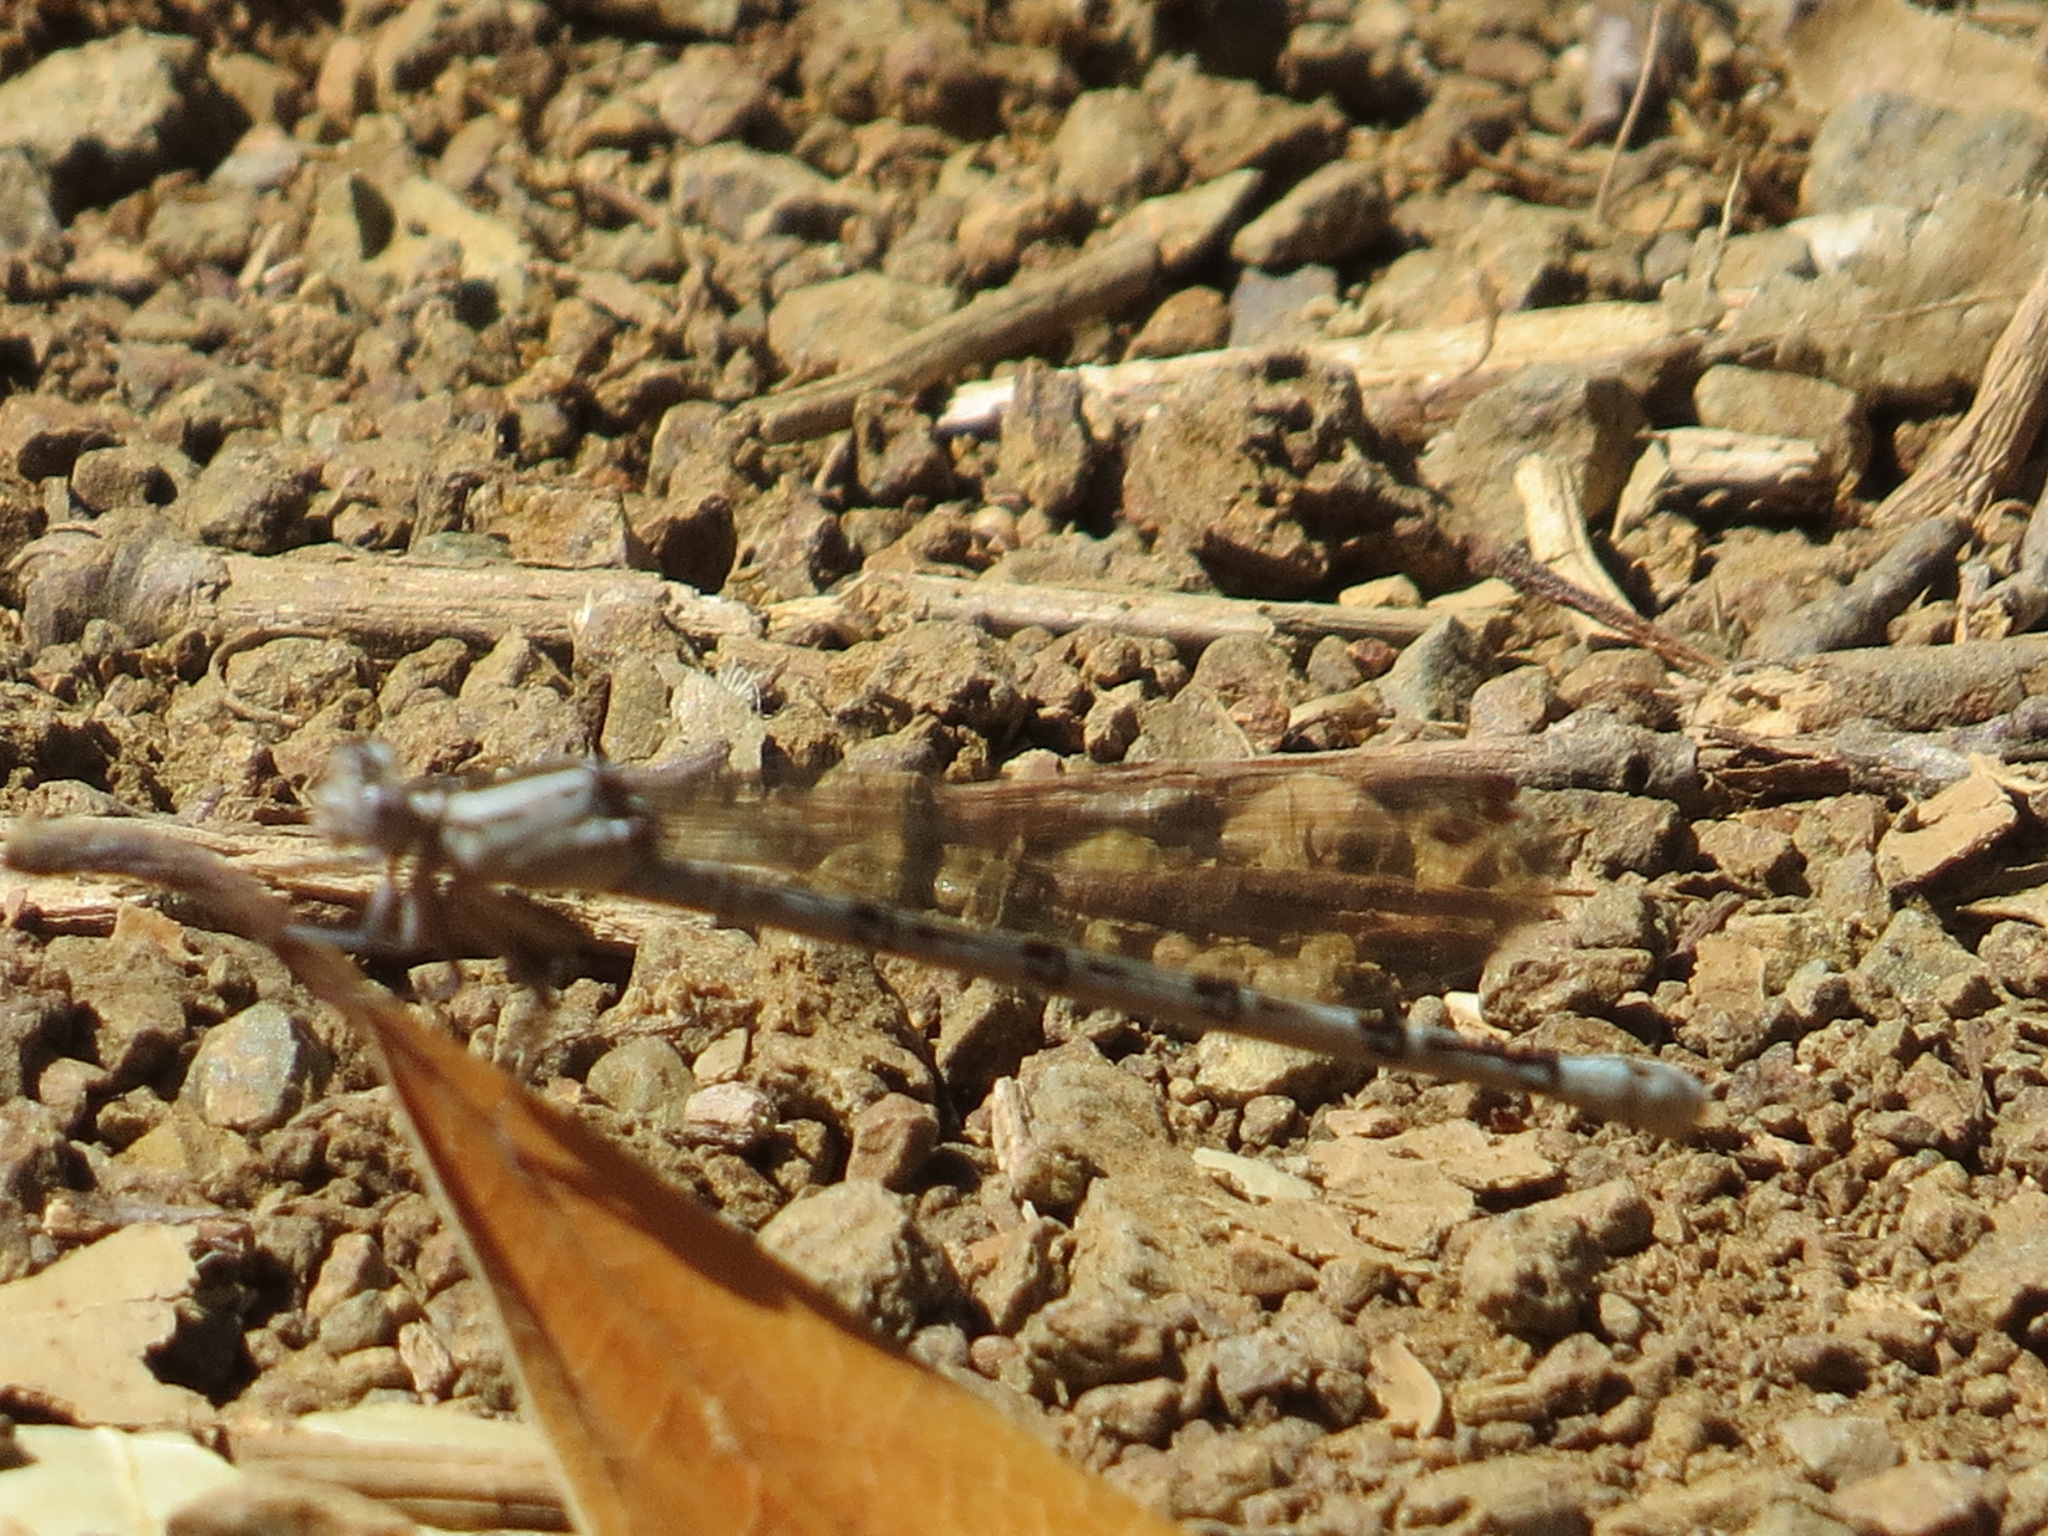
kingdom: Animalia
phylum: Arthropoda
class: Insecta
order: Odonata
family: Coenagrionidae
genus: Argia
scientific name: Argia vivida
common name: Vivid dancer
